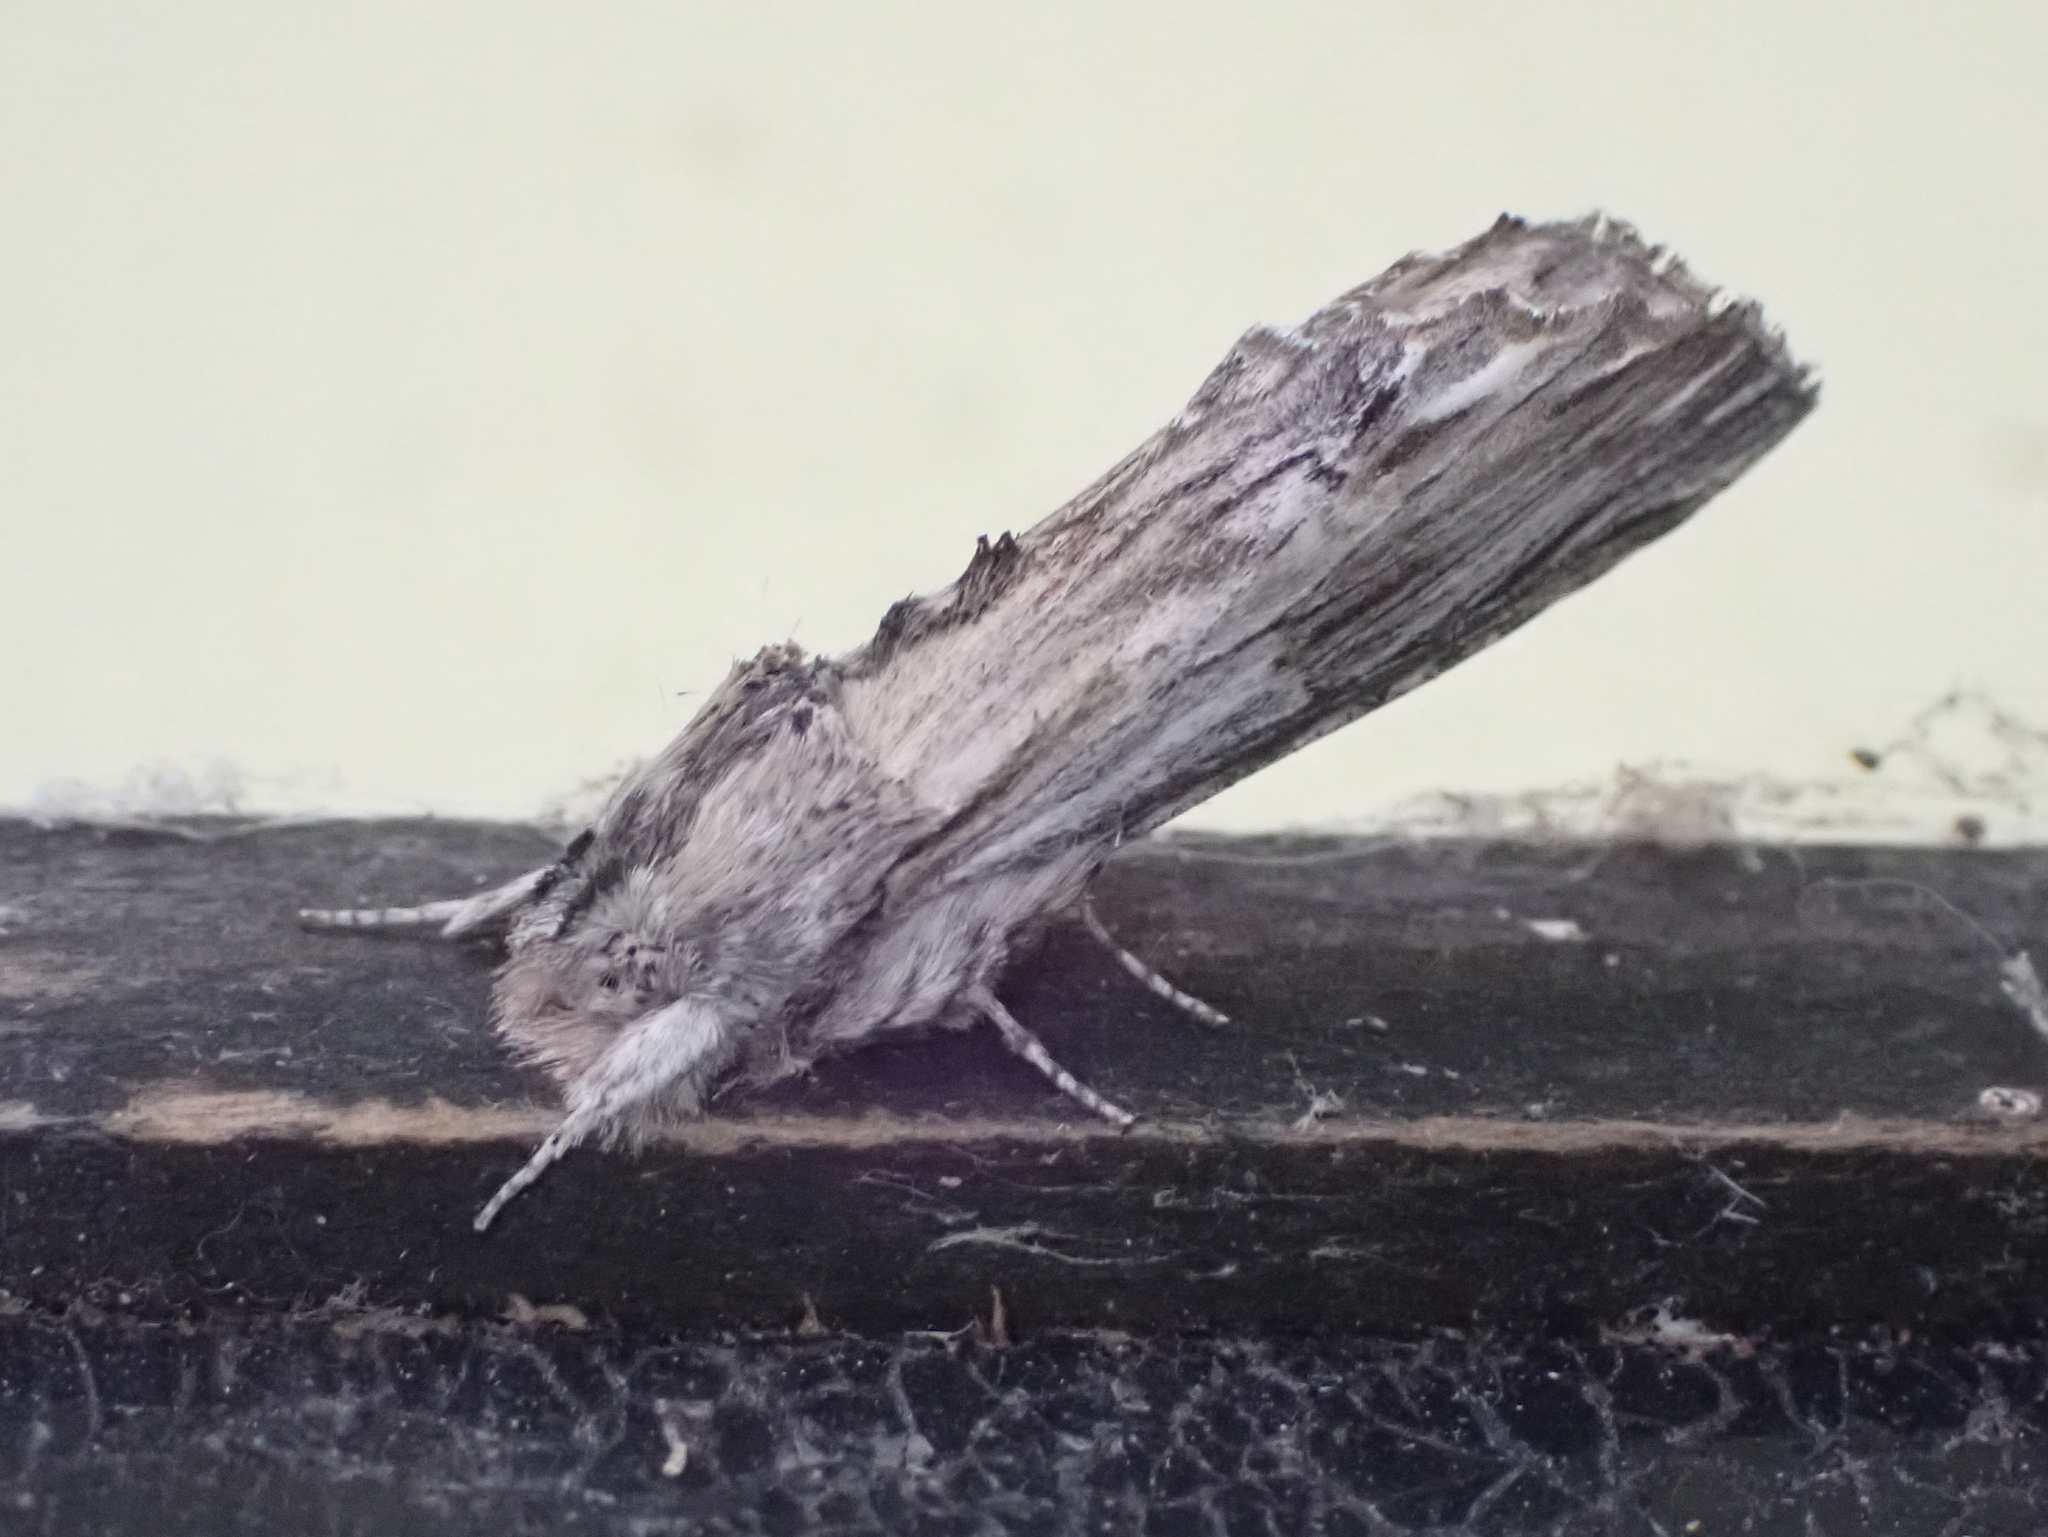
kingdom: Animalia
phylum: Arthropoda
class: Insecta
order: Lepidoptera
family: Notodontidae
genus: Oligocentria
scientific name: Oligocentria Ianassa lignicolor
